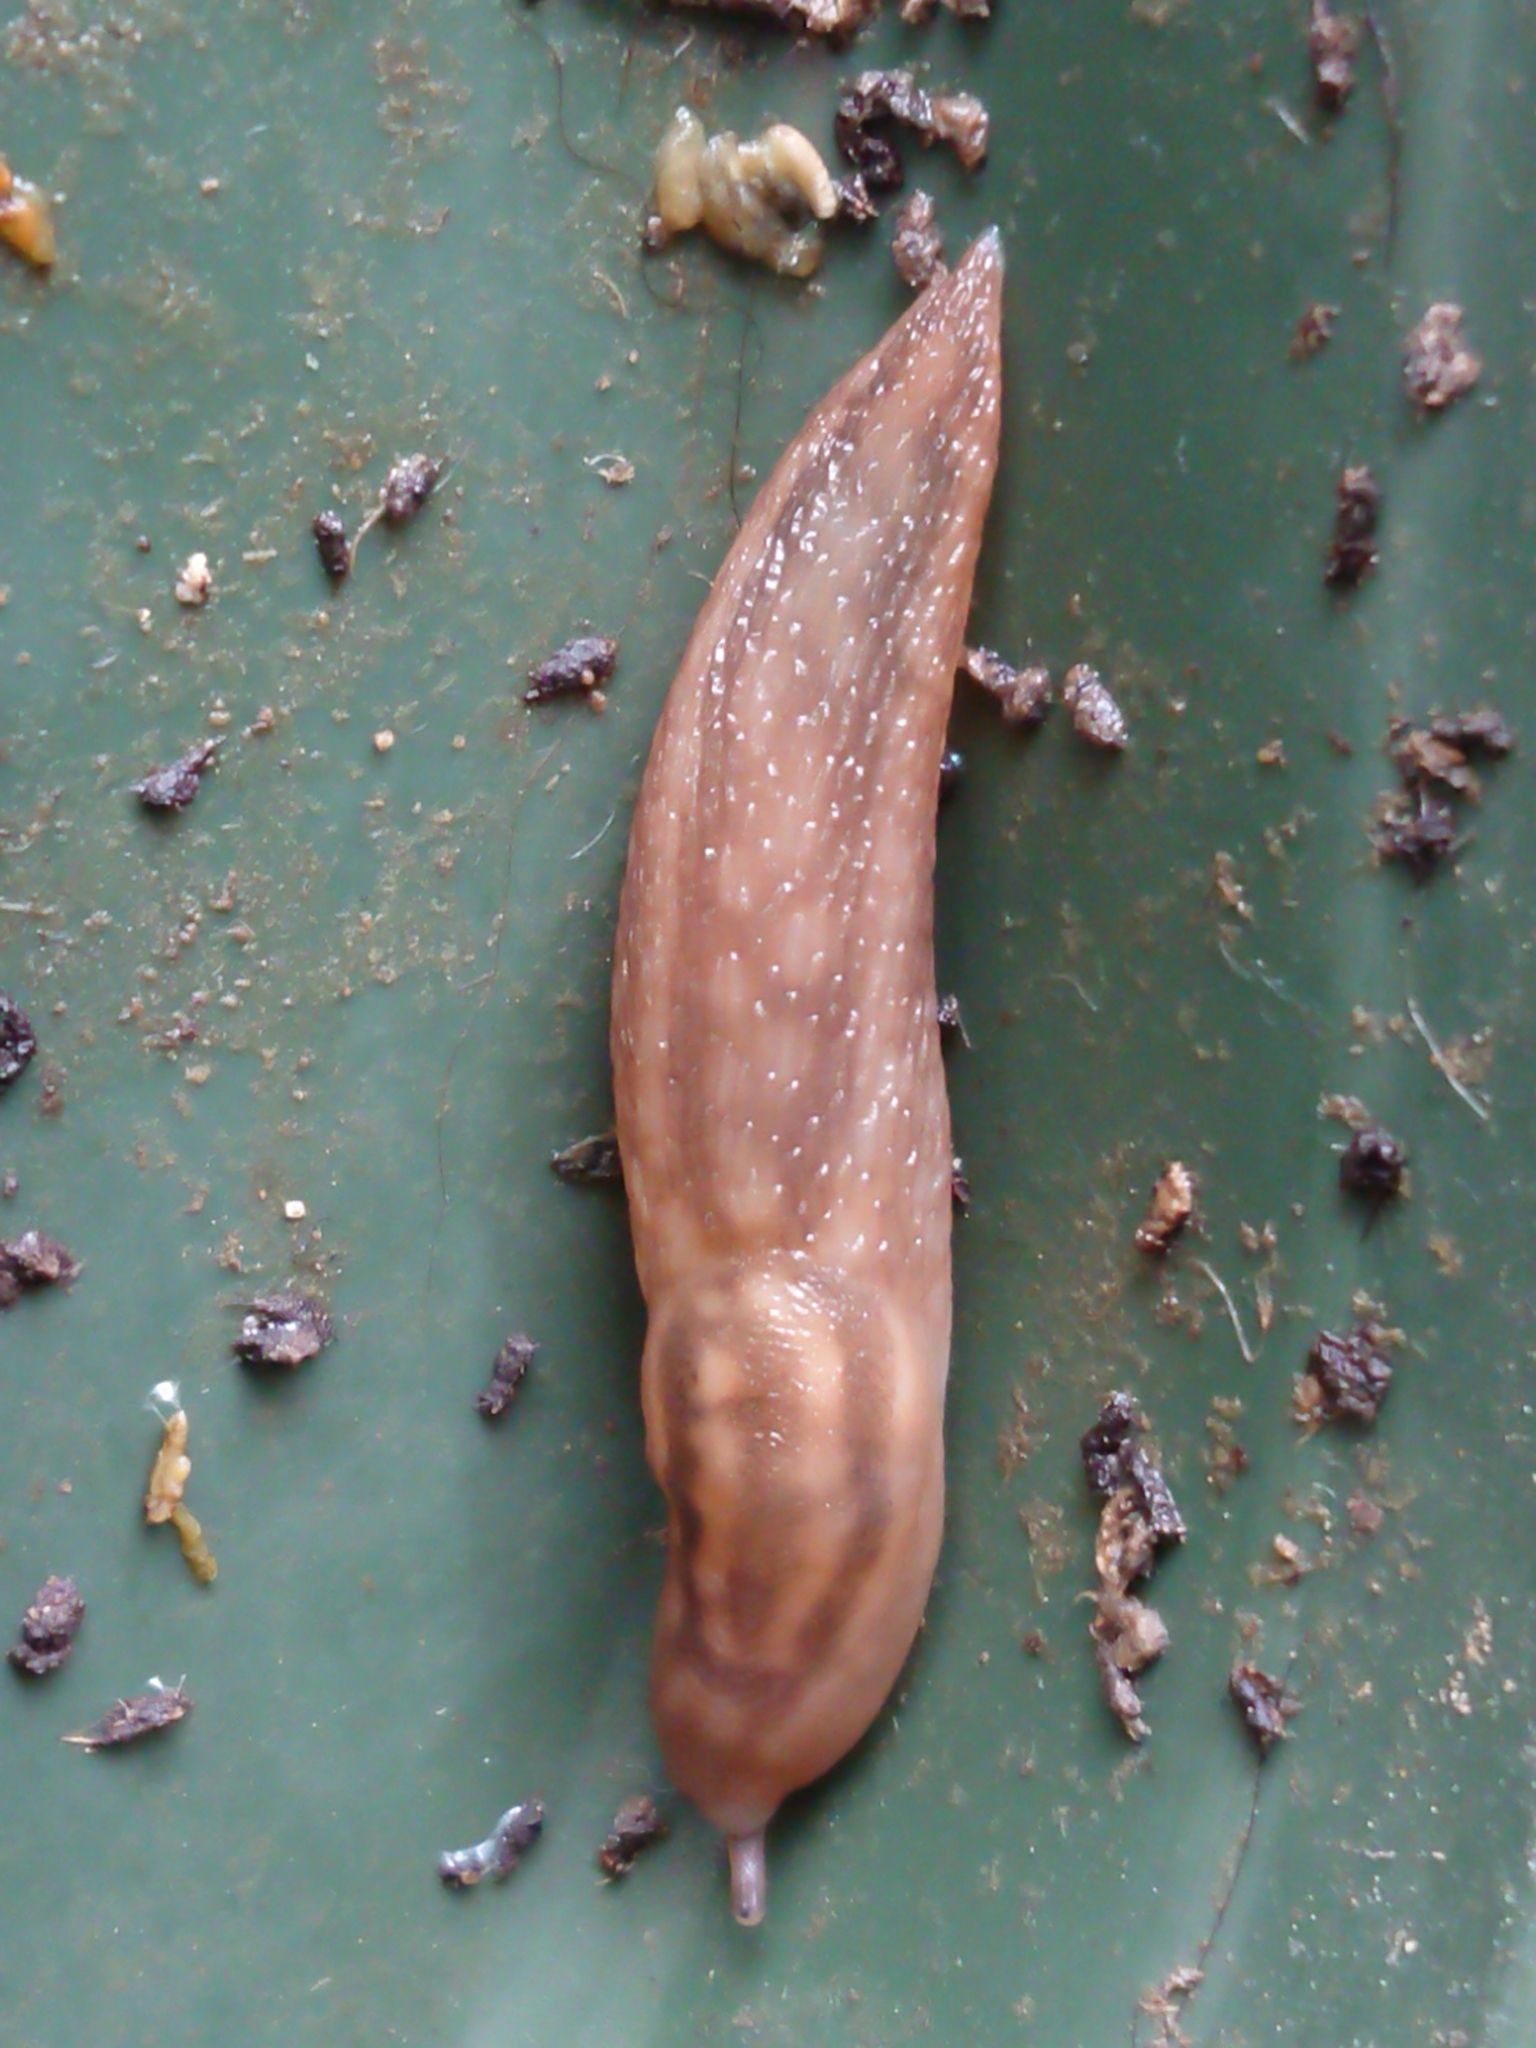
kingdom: Animalia
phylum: Mollusca
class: Gastropoda
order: Stylommatophora
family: Limacidae
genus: Ambigolimax
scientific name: Ambigolimax
